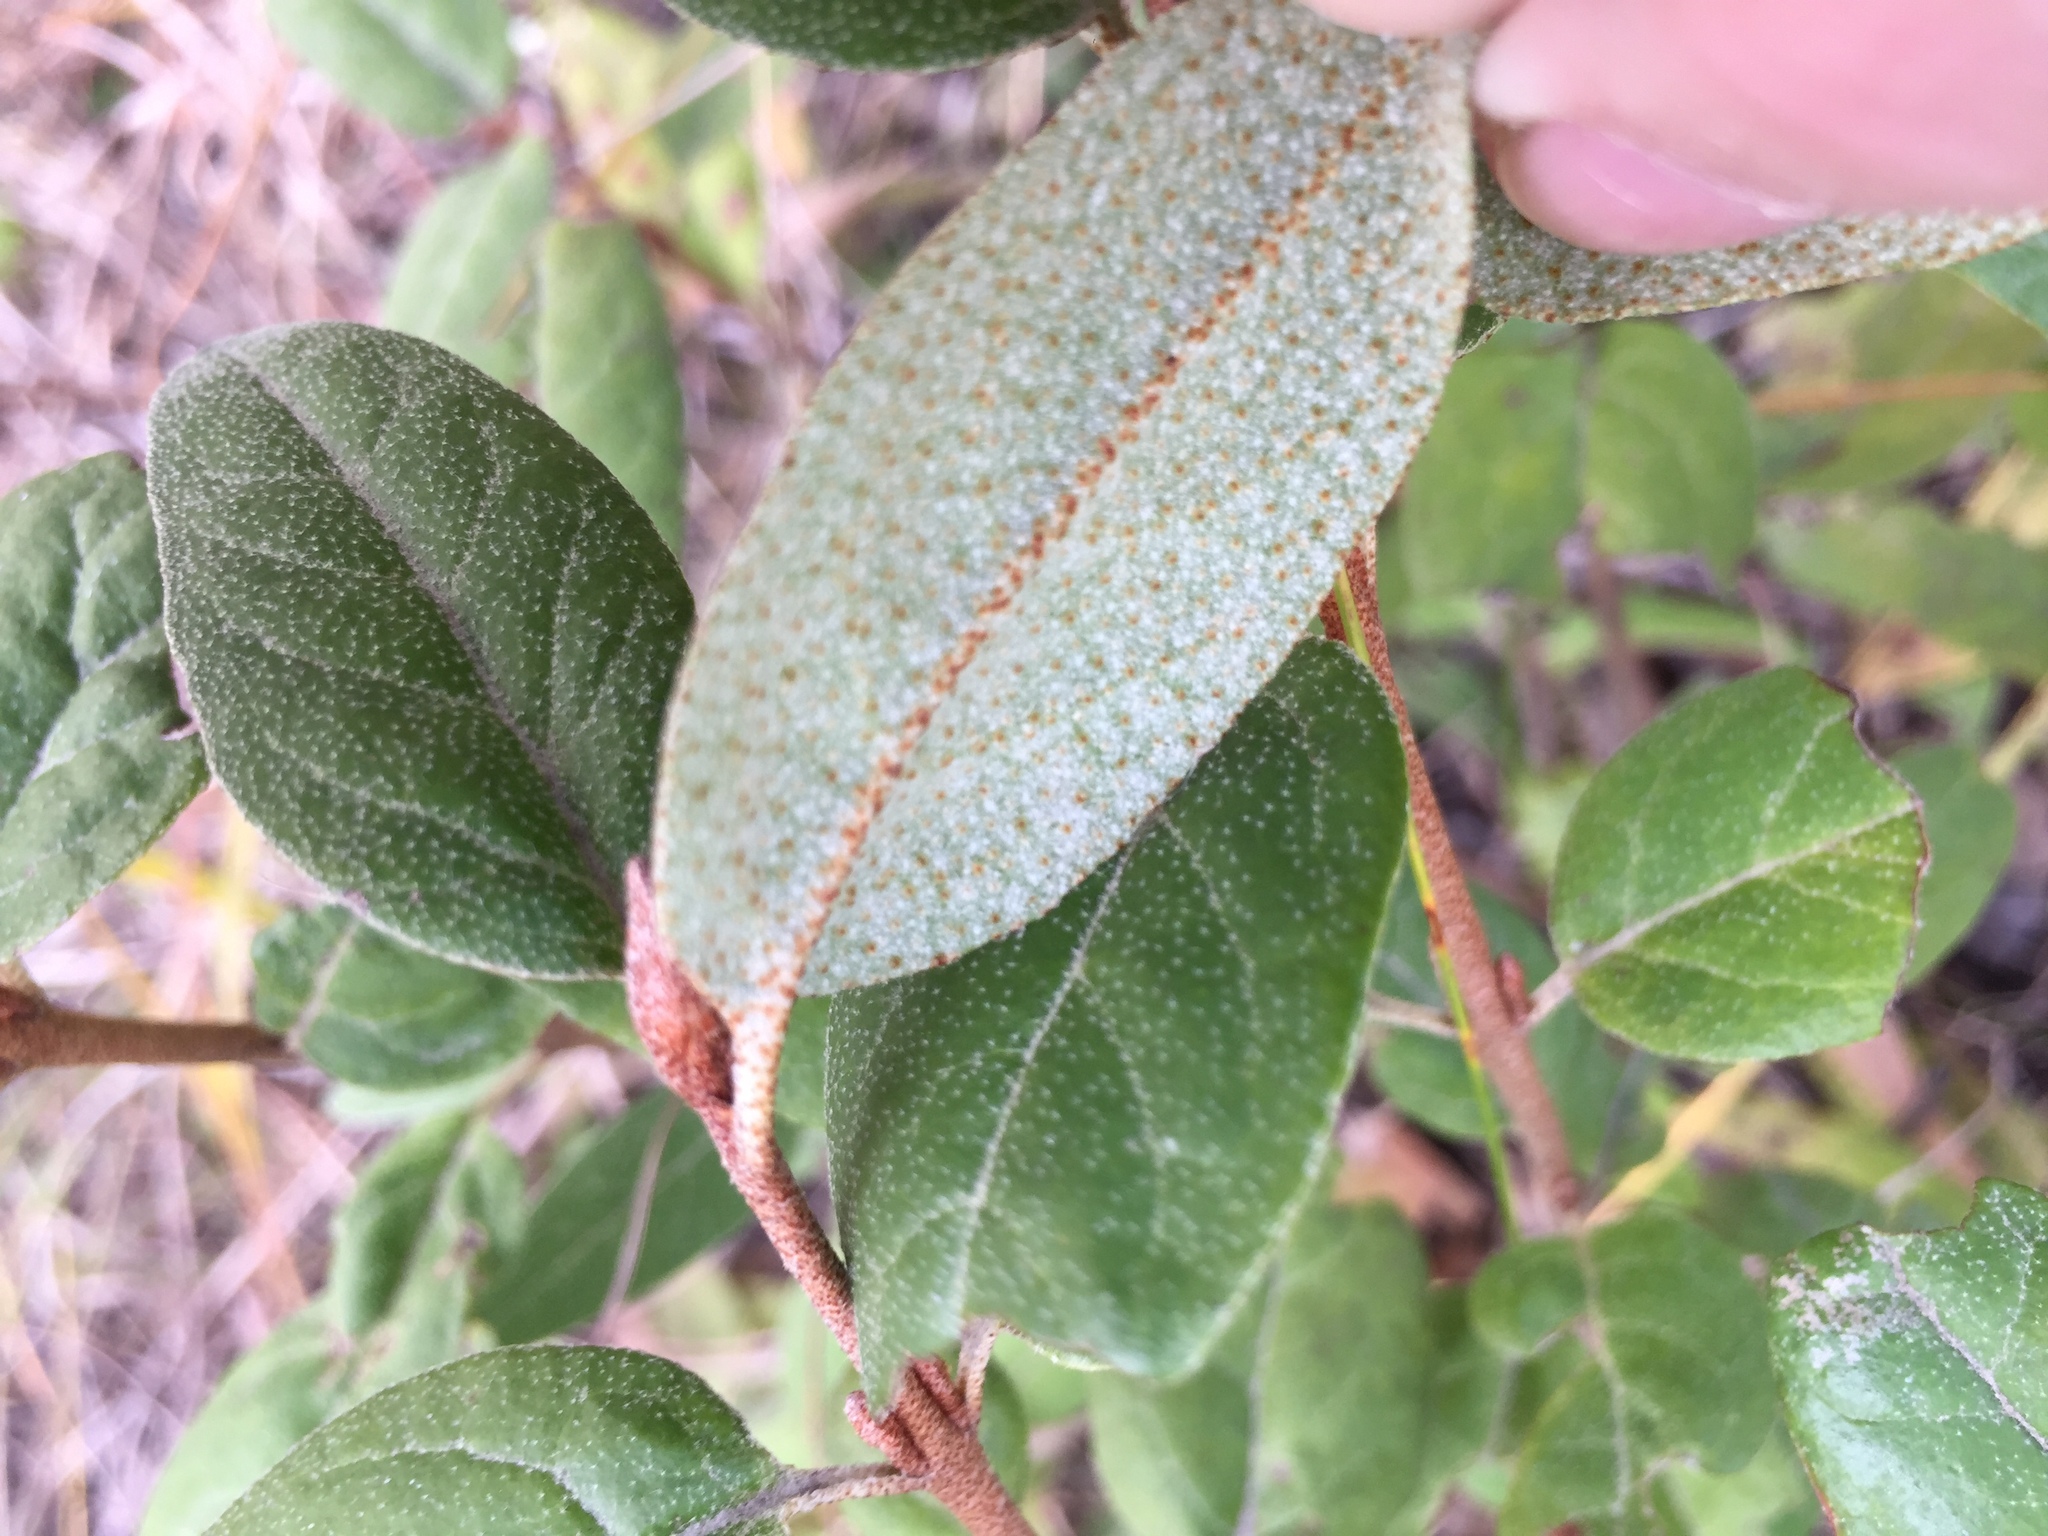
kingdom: Plantae
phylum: Tracheophyta
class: Magnoliopsida
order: Rosales
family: Elaeagnaceae
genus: Shepherdia
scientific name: Shepherdia canadensis
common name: Soapberry
